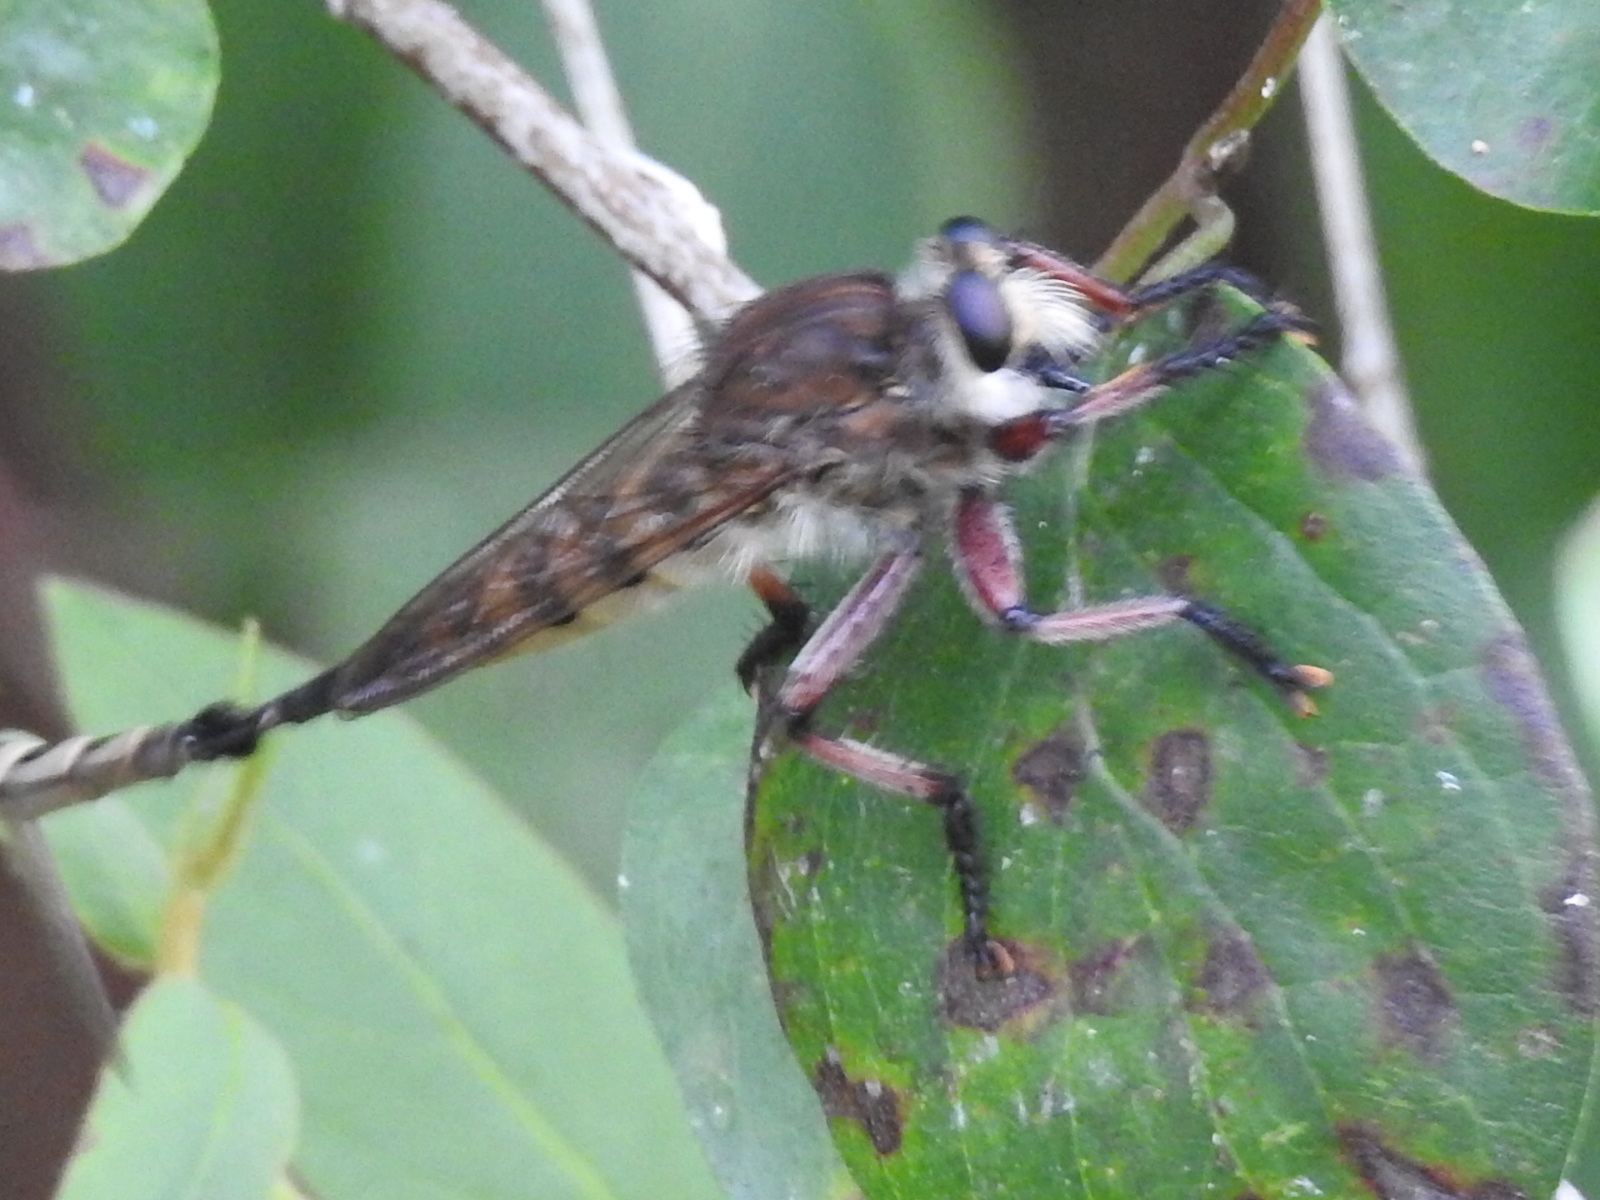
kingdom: Animalia
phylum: Arthropoda
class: Insecta
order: Diptera
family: Asilidae
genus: Promachus
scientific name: Promachus hinei
